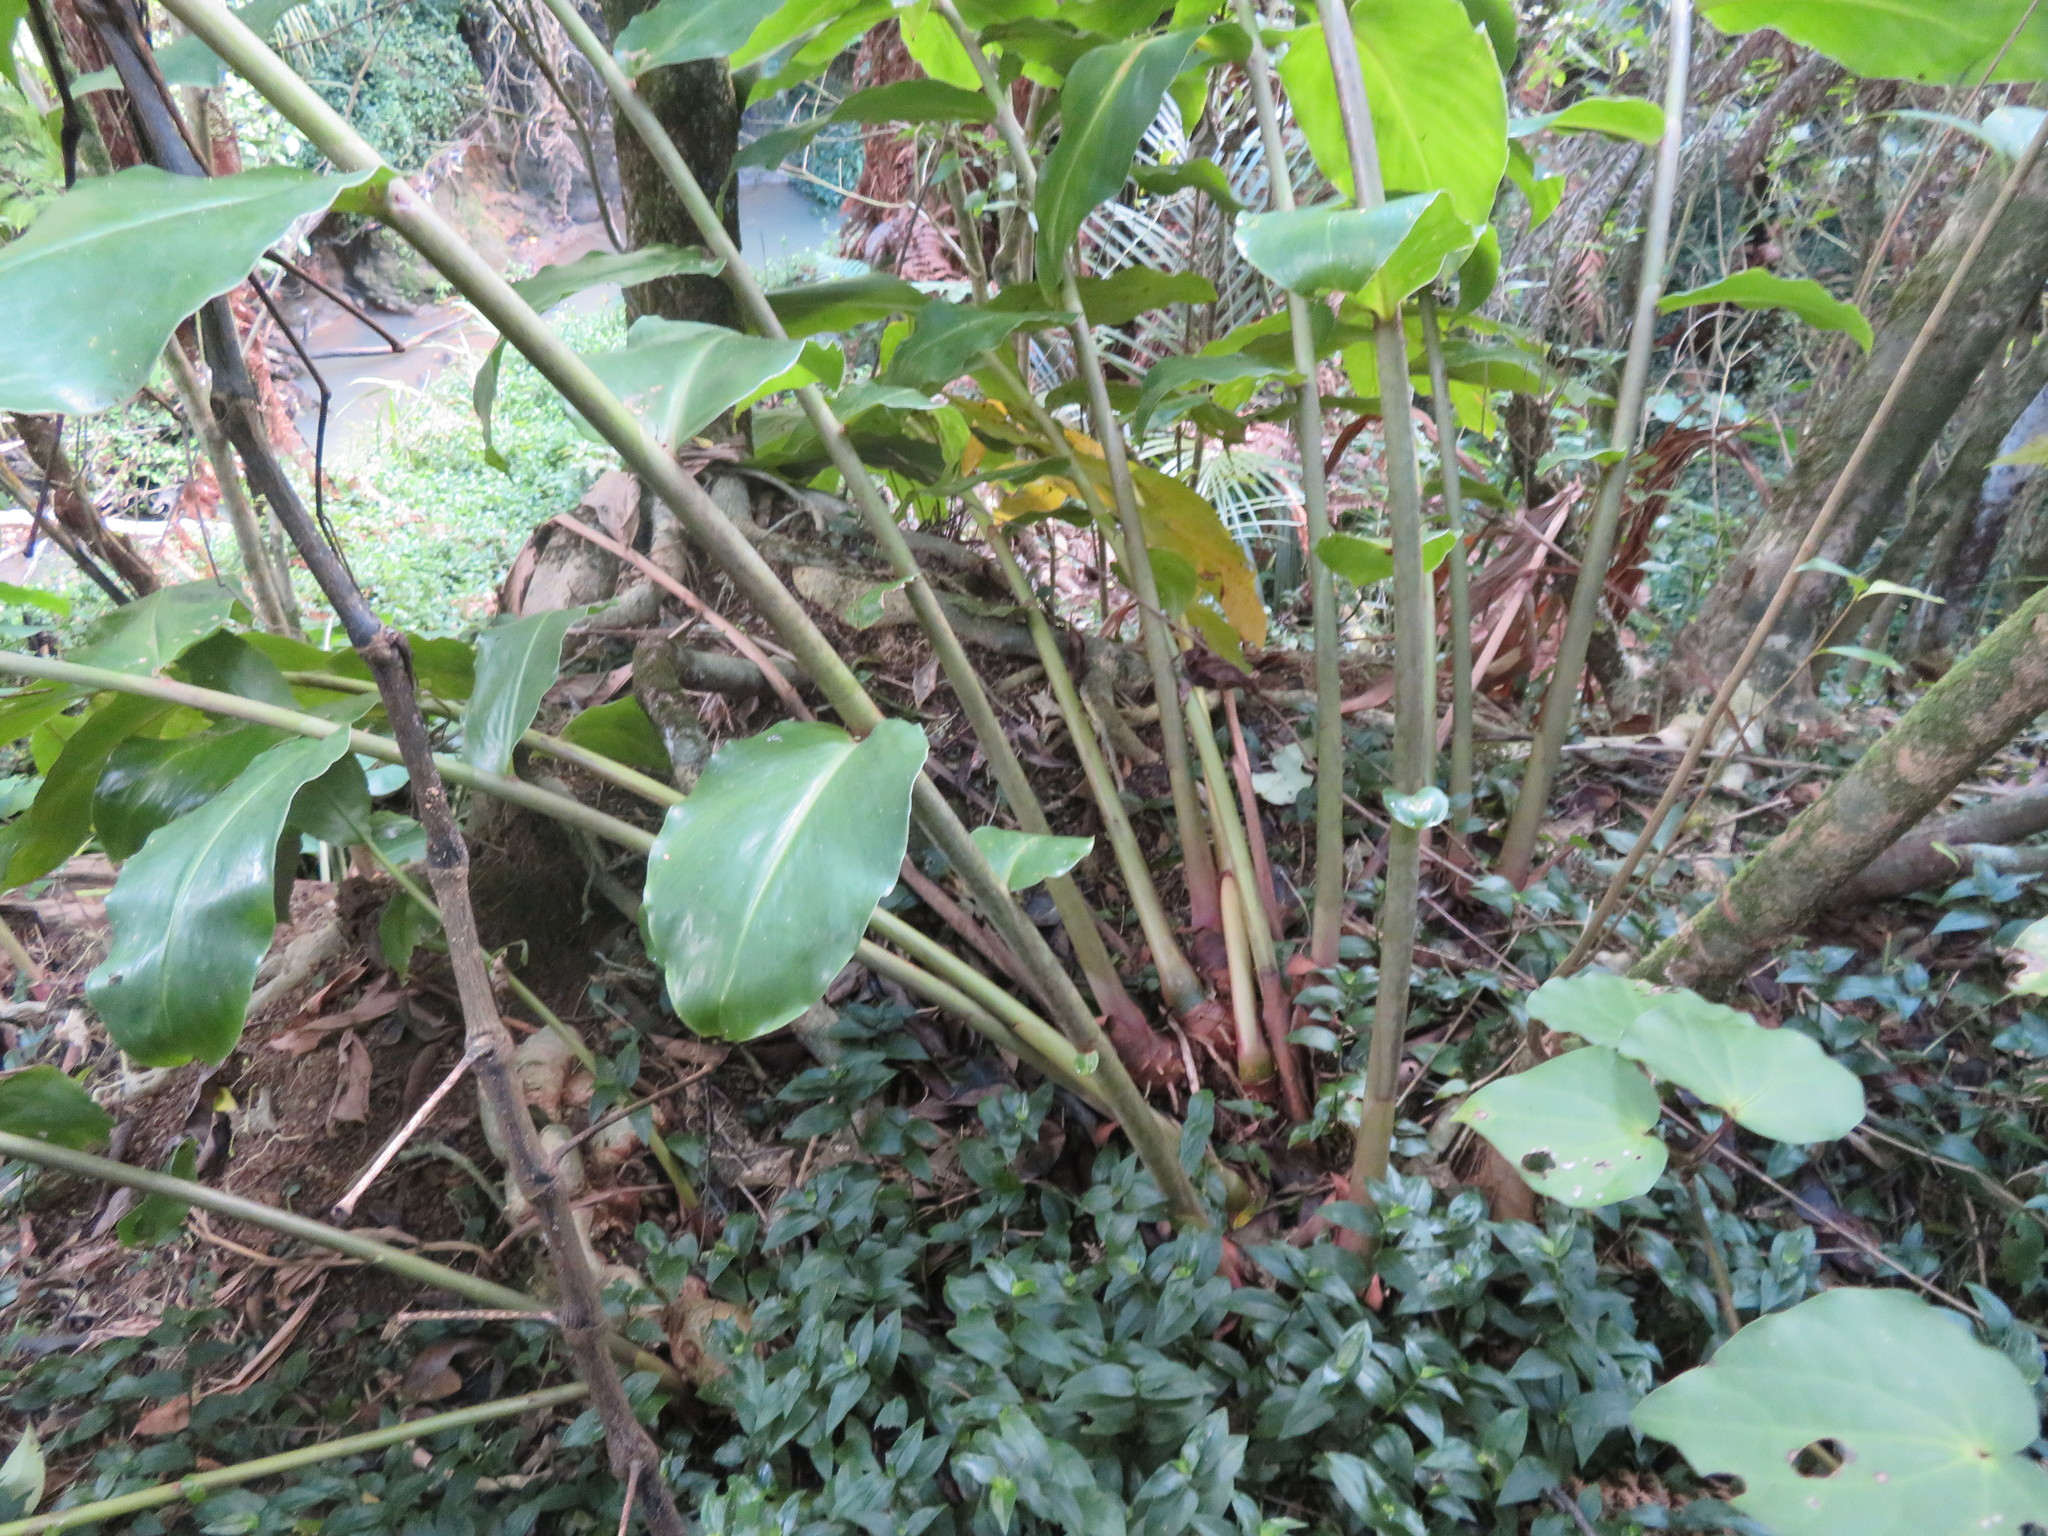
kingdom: Plantae
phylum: Tracheophyta
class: Liliopsida
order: Zingiberales
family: Zingiberaceae
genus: Hedychium
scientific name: Hedychium gardnerianum
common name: Himalayan ginger
